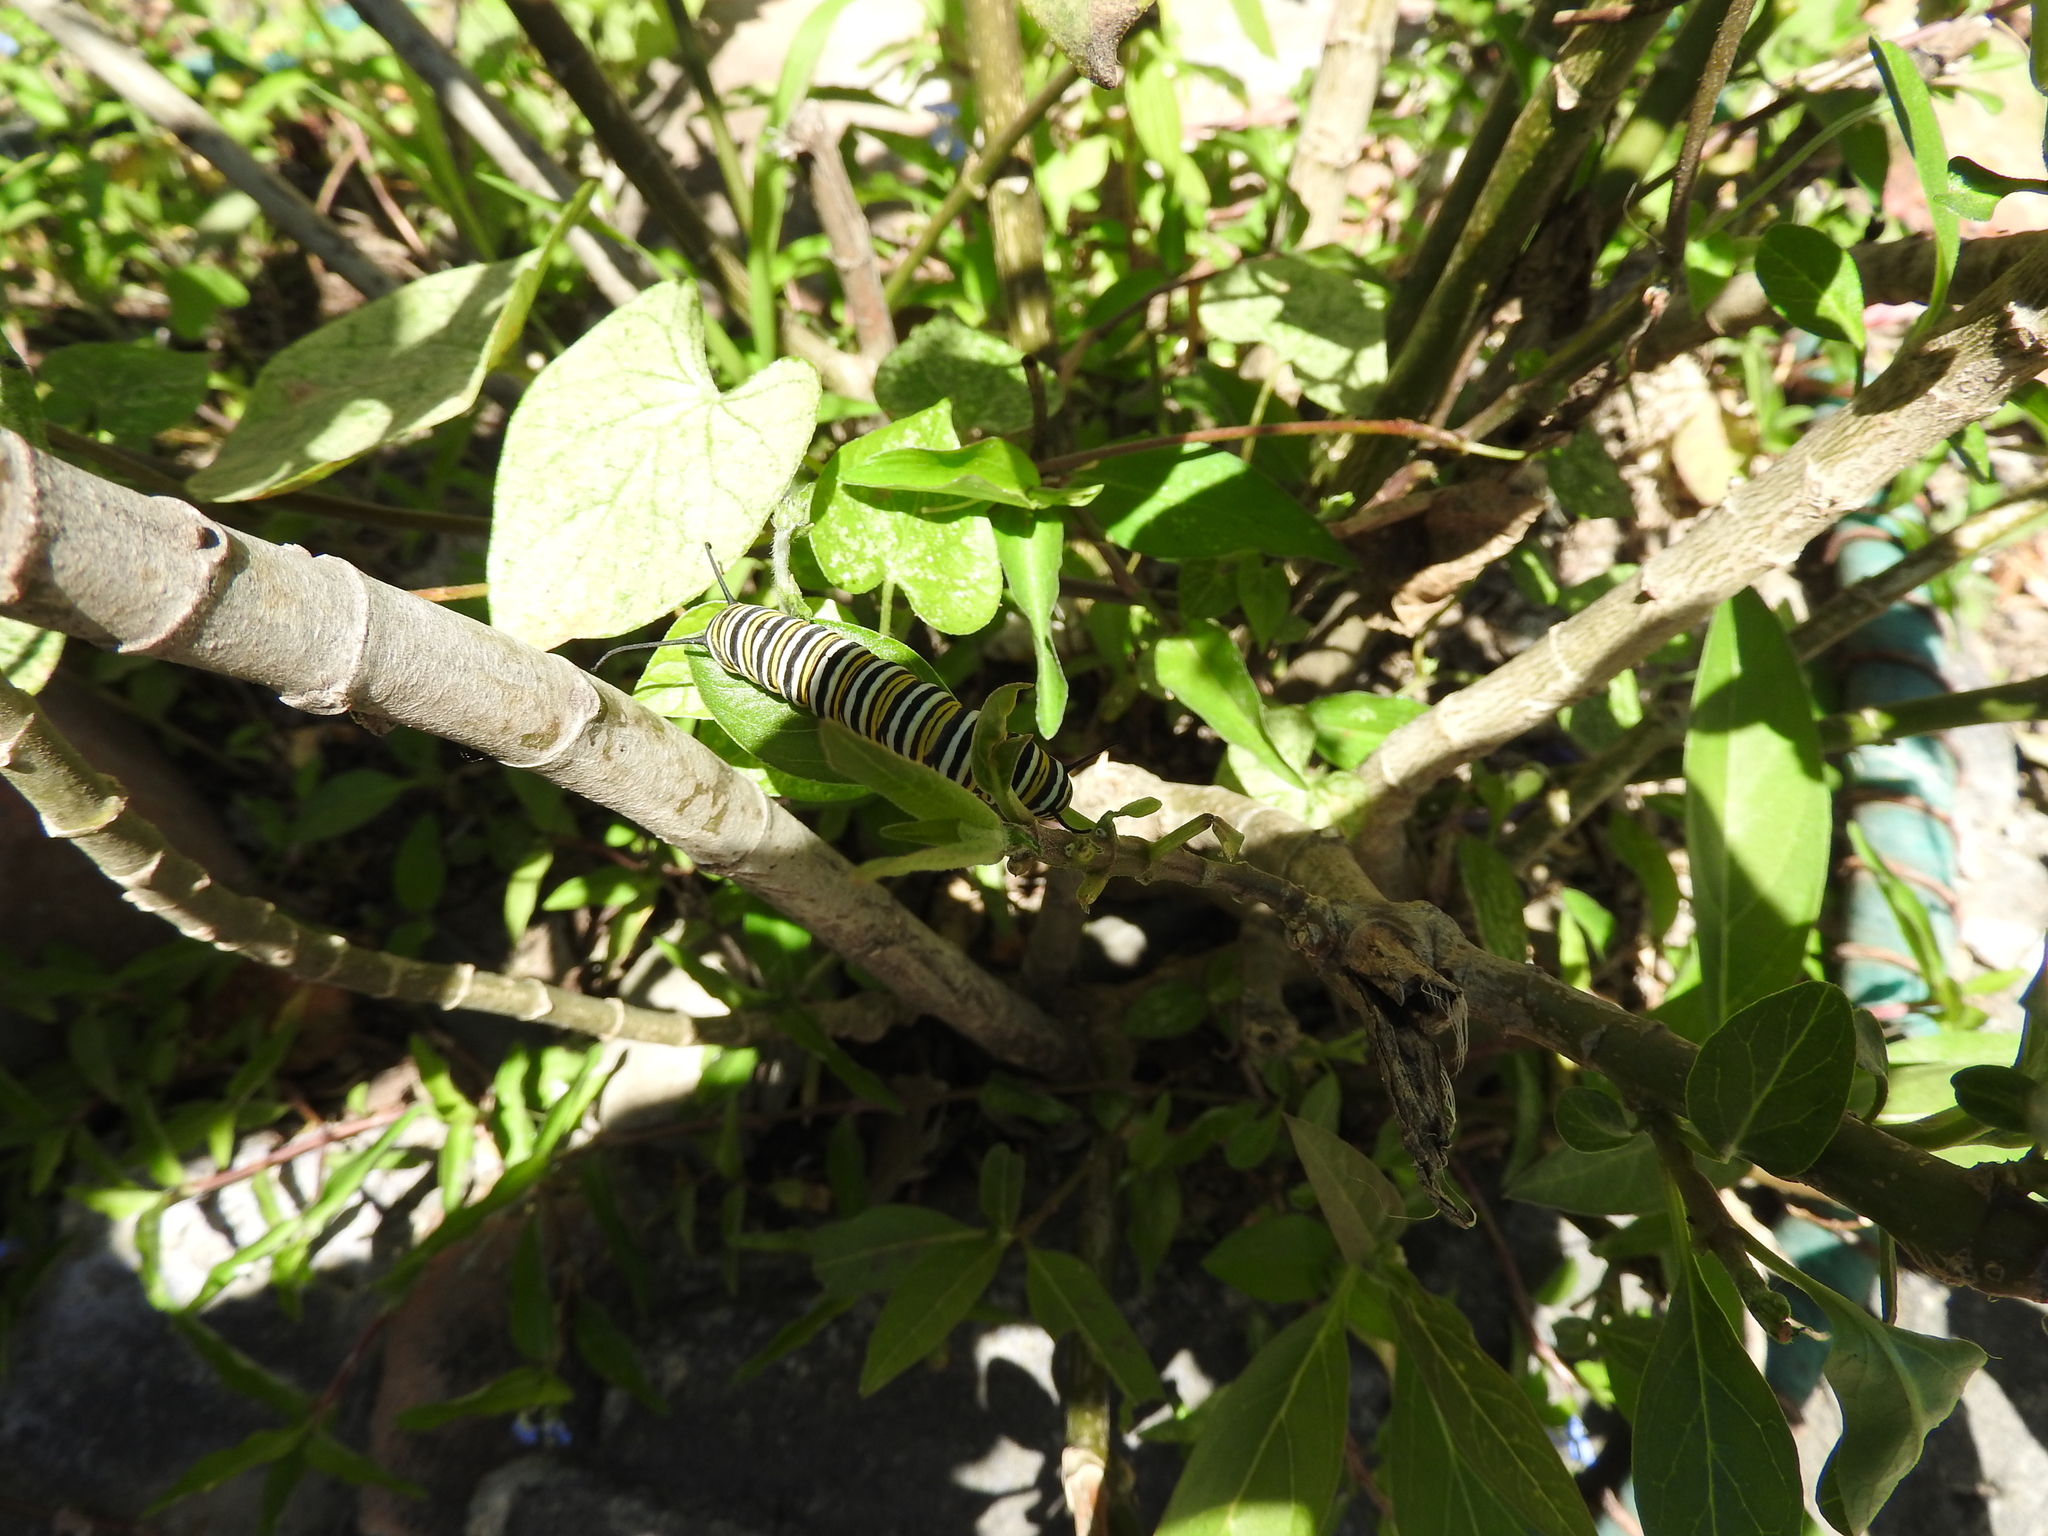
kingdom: Animalia
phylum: Arthropoda
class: Insecta
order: Lepidoptera
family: Nymphalidae
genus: Danaus
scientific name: Danaus plexippus
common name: Monarch
